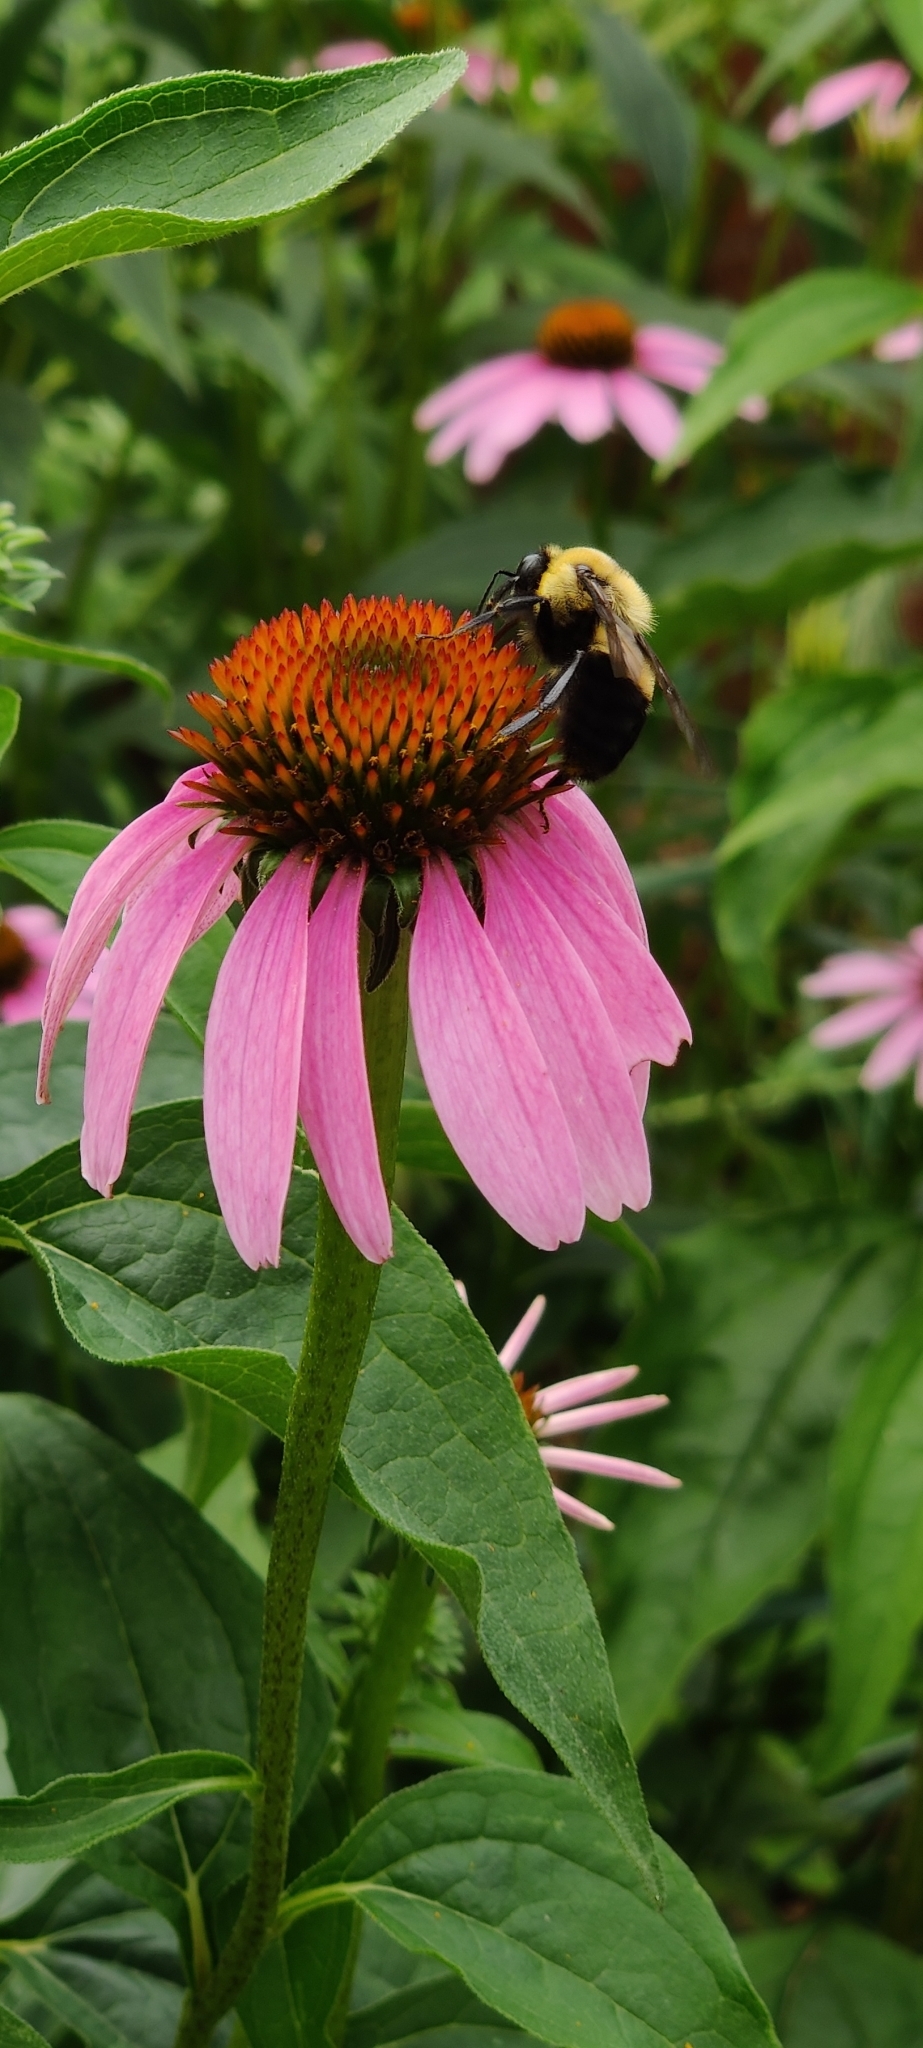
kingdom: Animalia
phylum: Arthropoda
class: Insecta
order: Hymenoptera
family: Apidae
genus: Bombus
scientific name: Bombus griseocollis
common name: Brown-belted bumble bee
